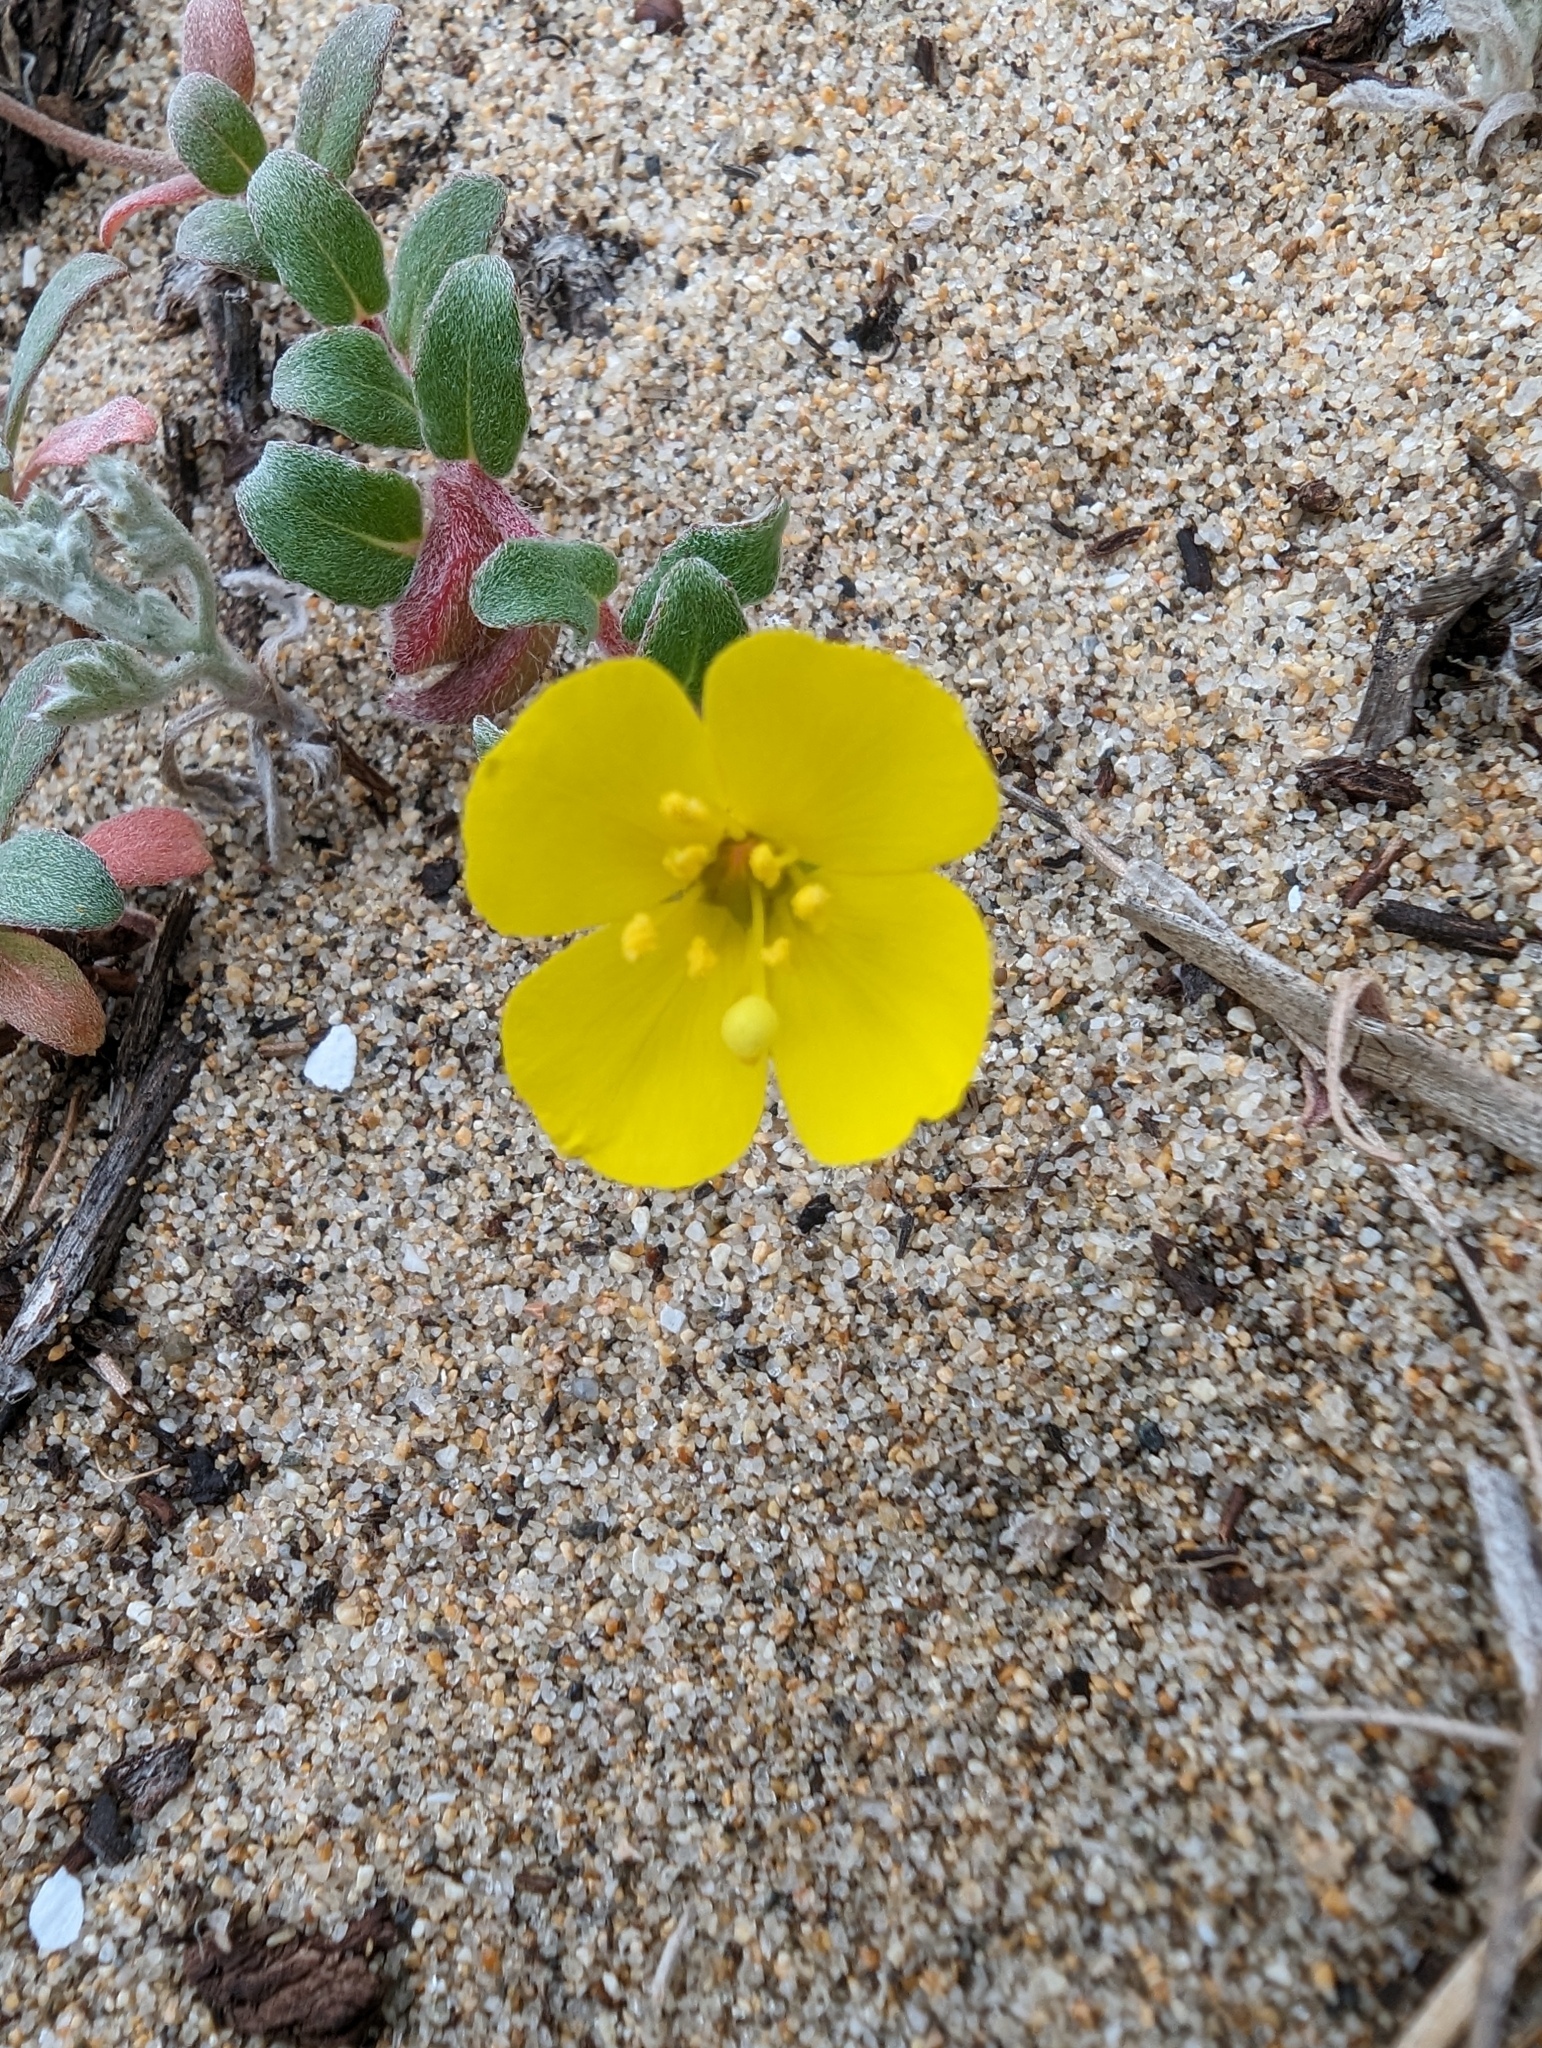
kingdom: Plantae
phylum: Tracheophyta
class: Magnoliopsida
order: Myrtales
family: Onagraceae
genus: Camissoniopsis
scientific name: Camissoniopsis cheiranthifolia
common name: Beach suncup
